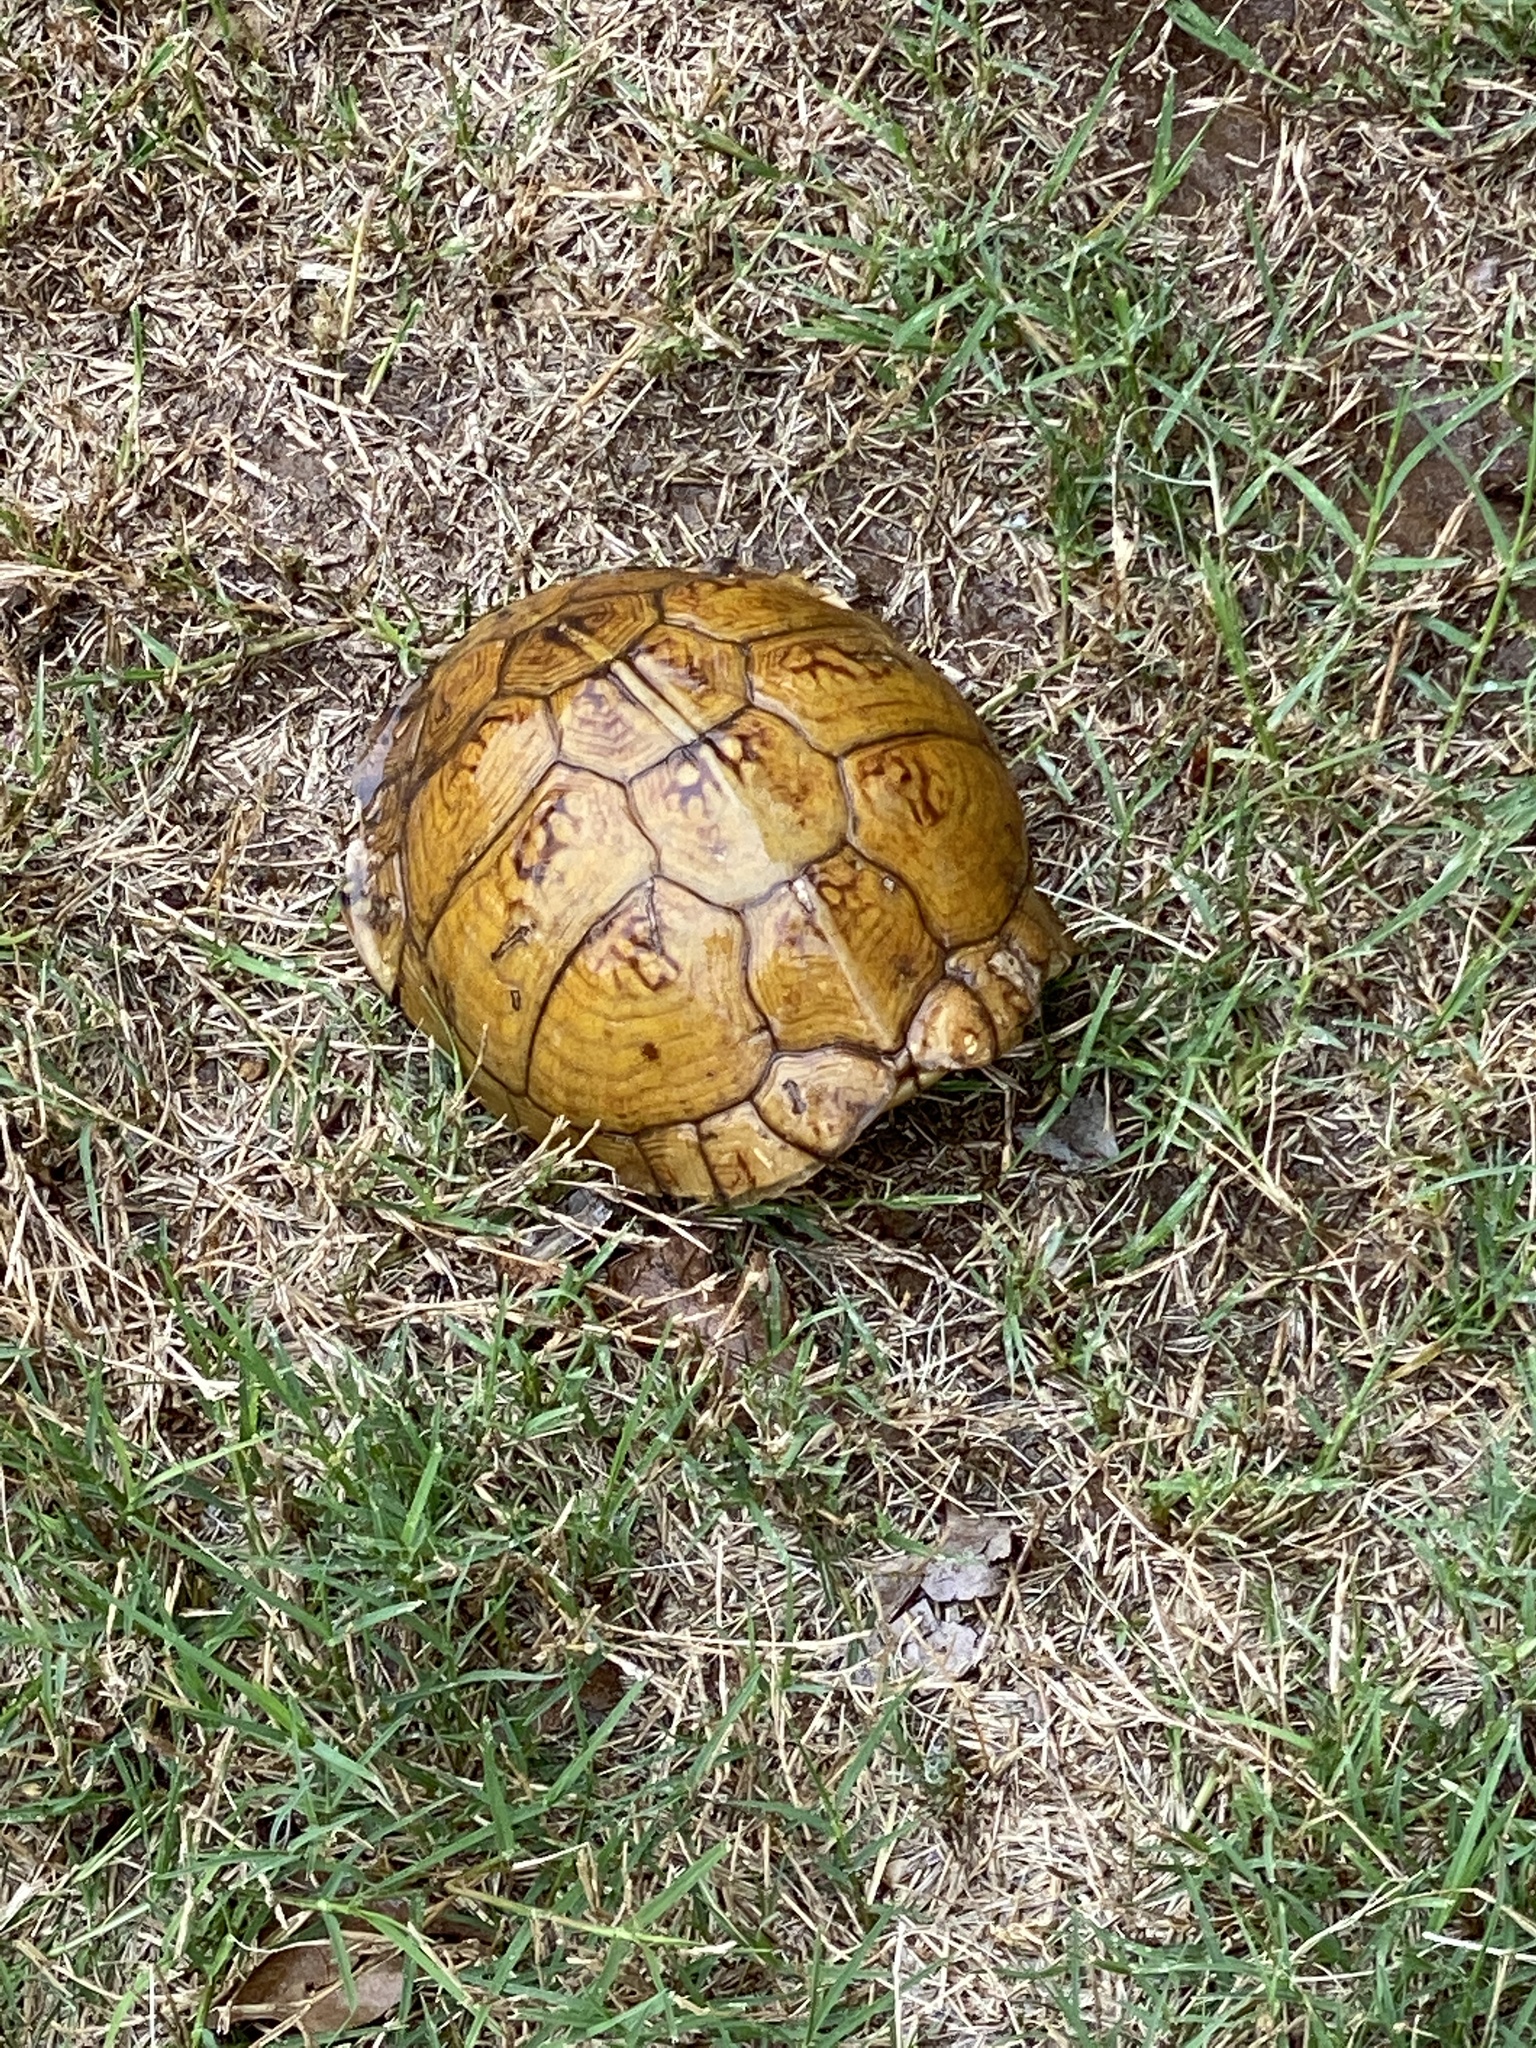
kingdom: Animalia
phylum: Chordata
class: Testudines
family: Emydidae
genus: Terrapene
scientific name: Terrapene carolina
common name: Common box turtle
